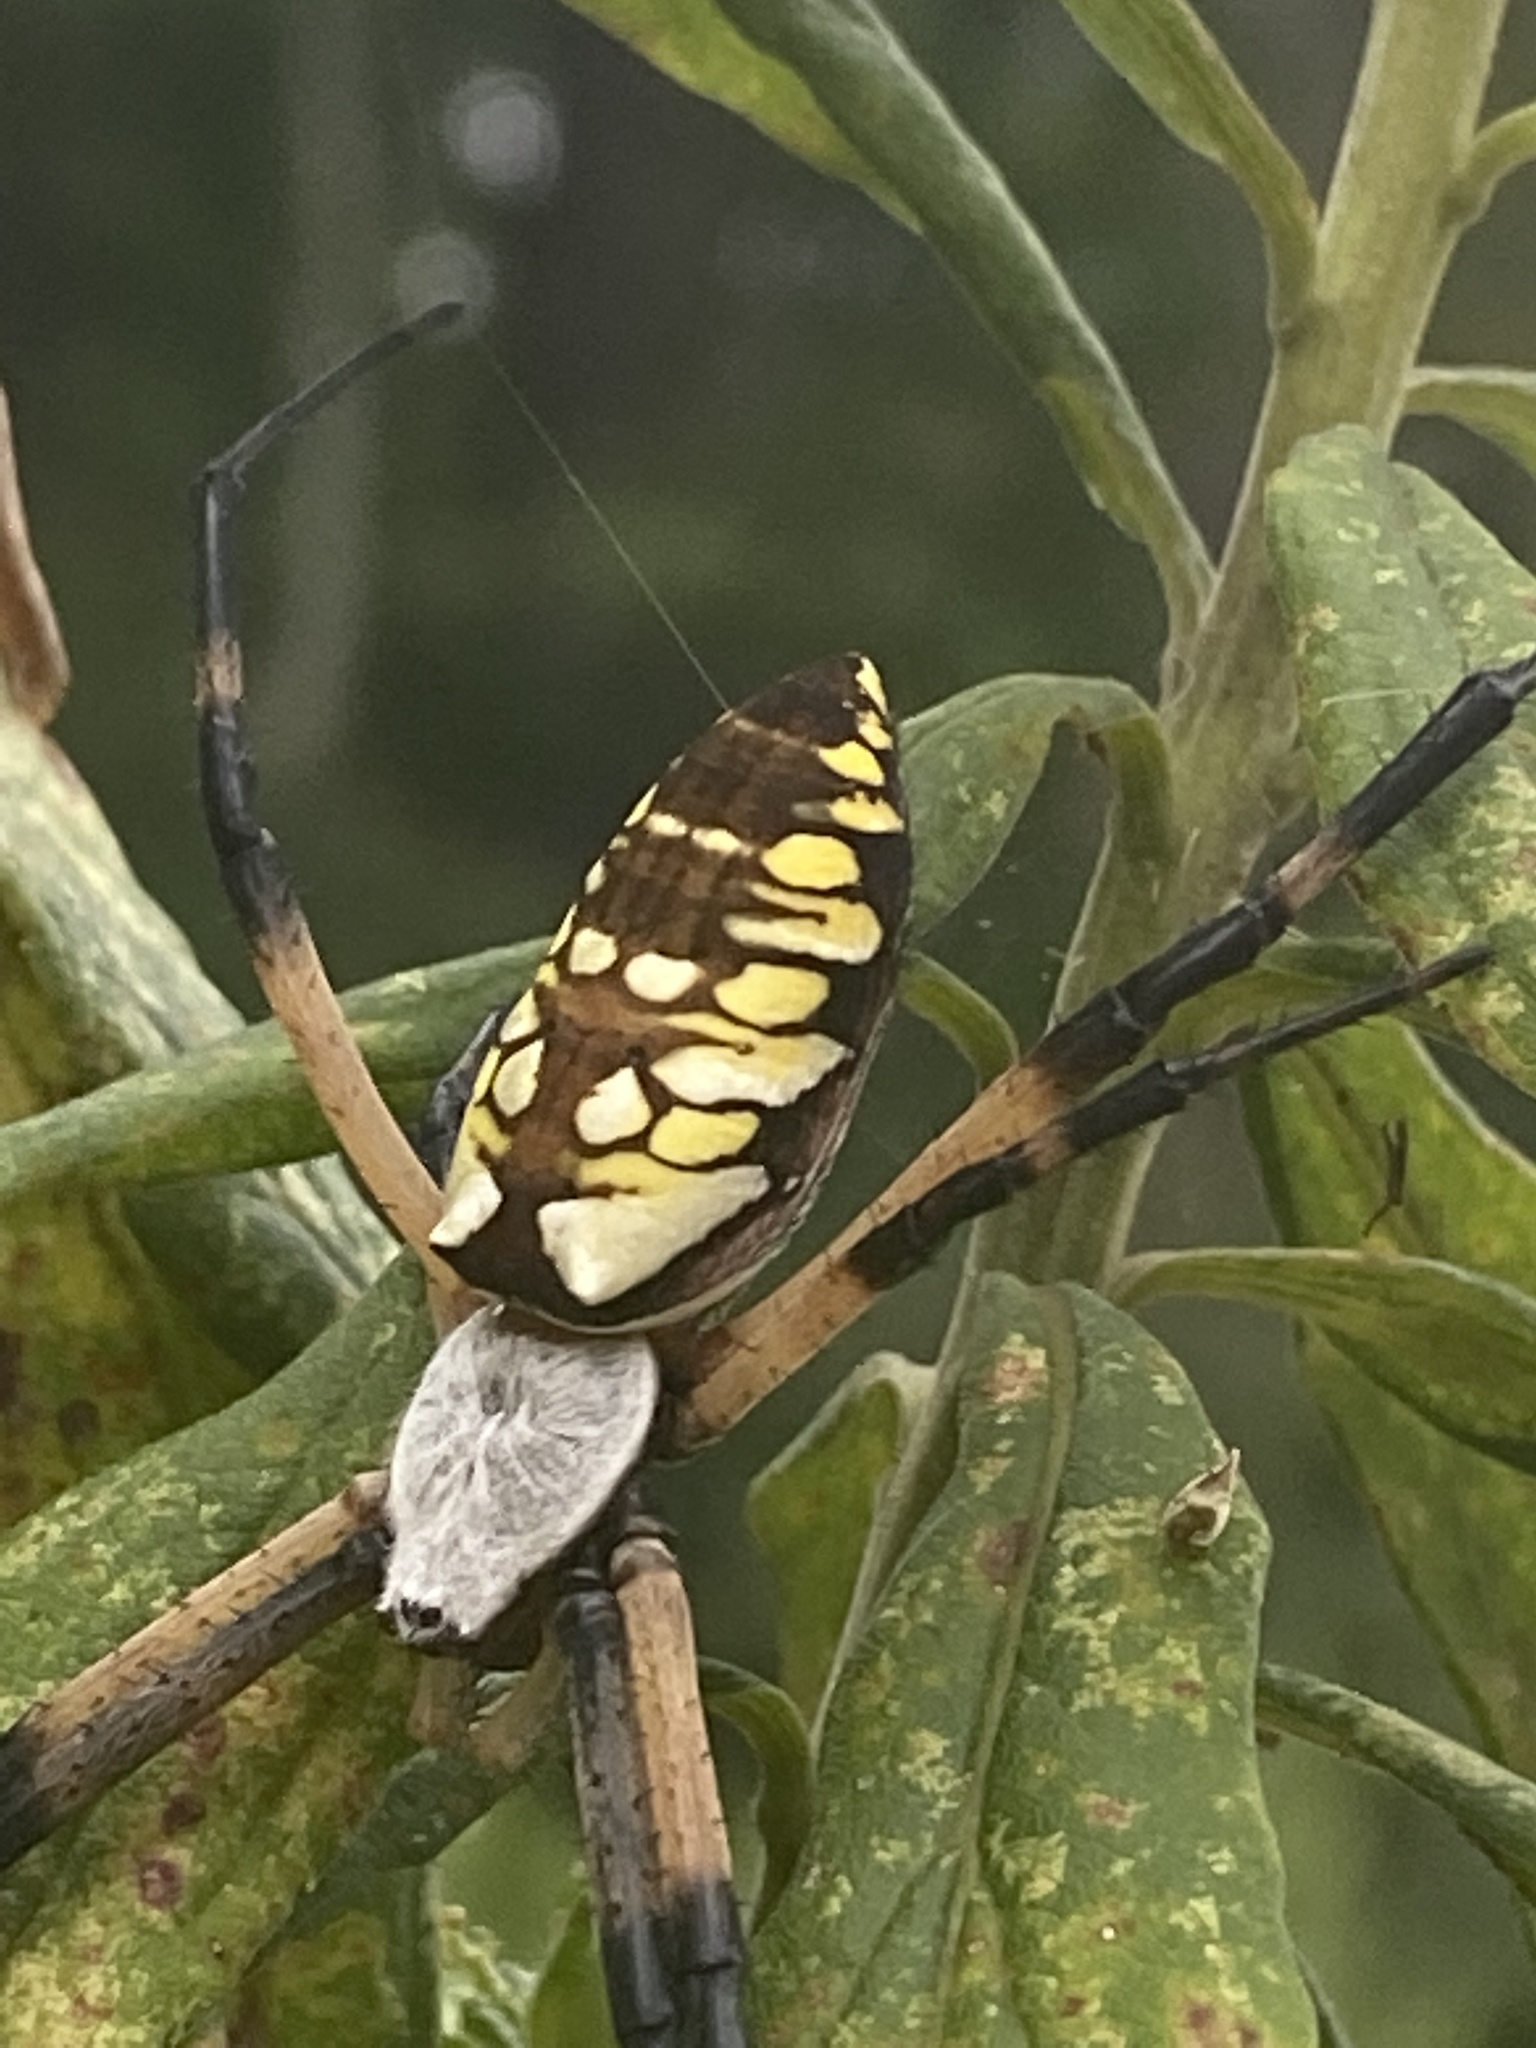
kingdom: Animalia
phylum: Arthropoda
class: Arachnida
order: Araneae
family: Araneidae
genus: Argiope
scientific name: Argiope aurantia
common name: Orb weavers
